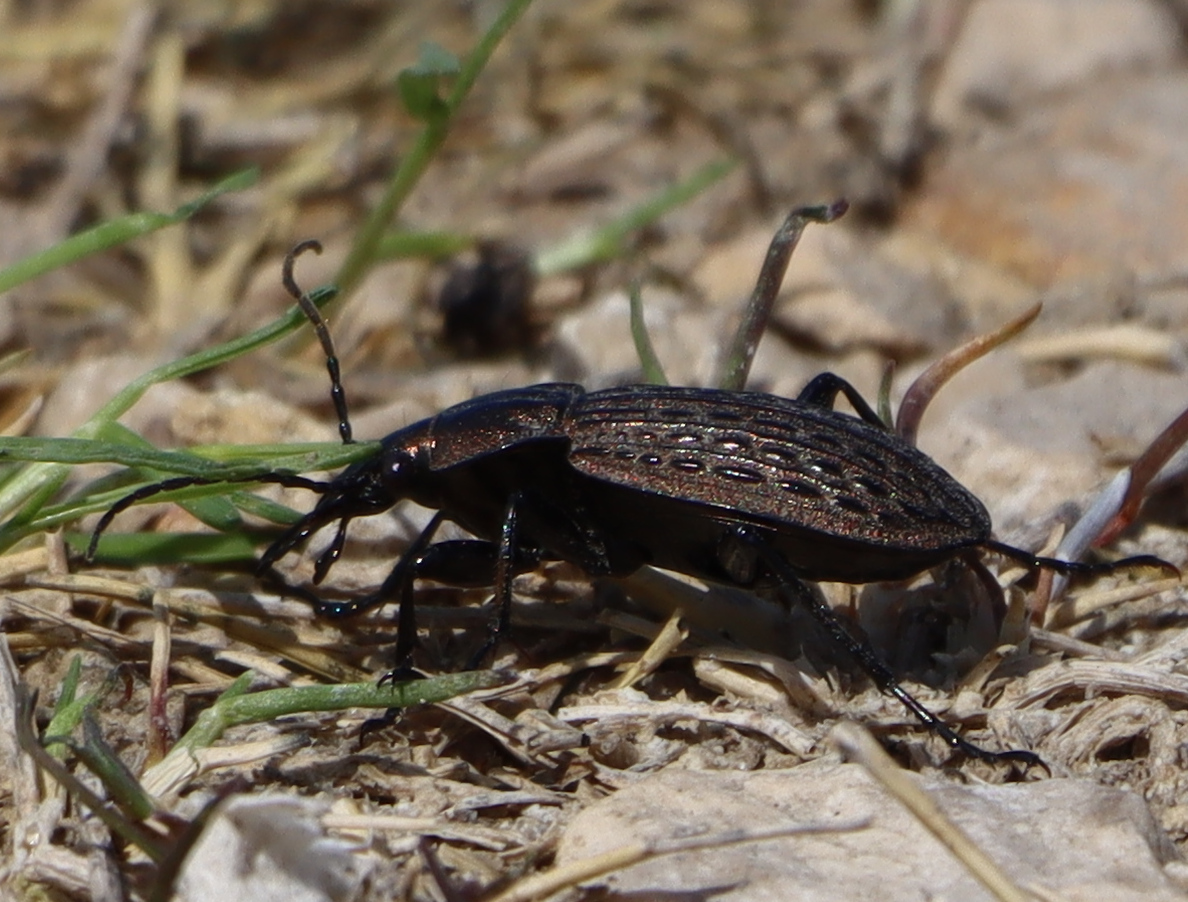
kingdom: Animalia
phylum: Arthropoda
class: Insecta
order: Coleoptera
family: Carabidae
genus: Carabus
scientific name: Carabus maeander
